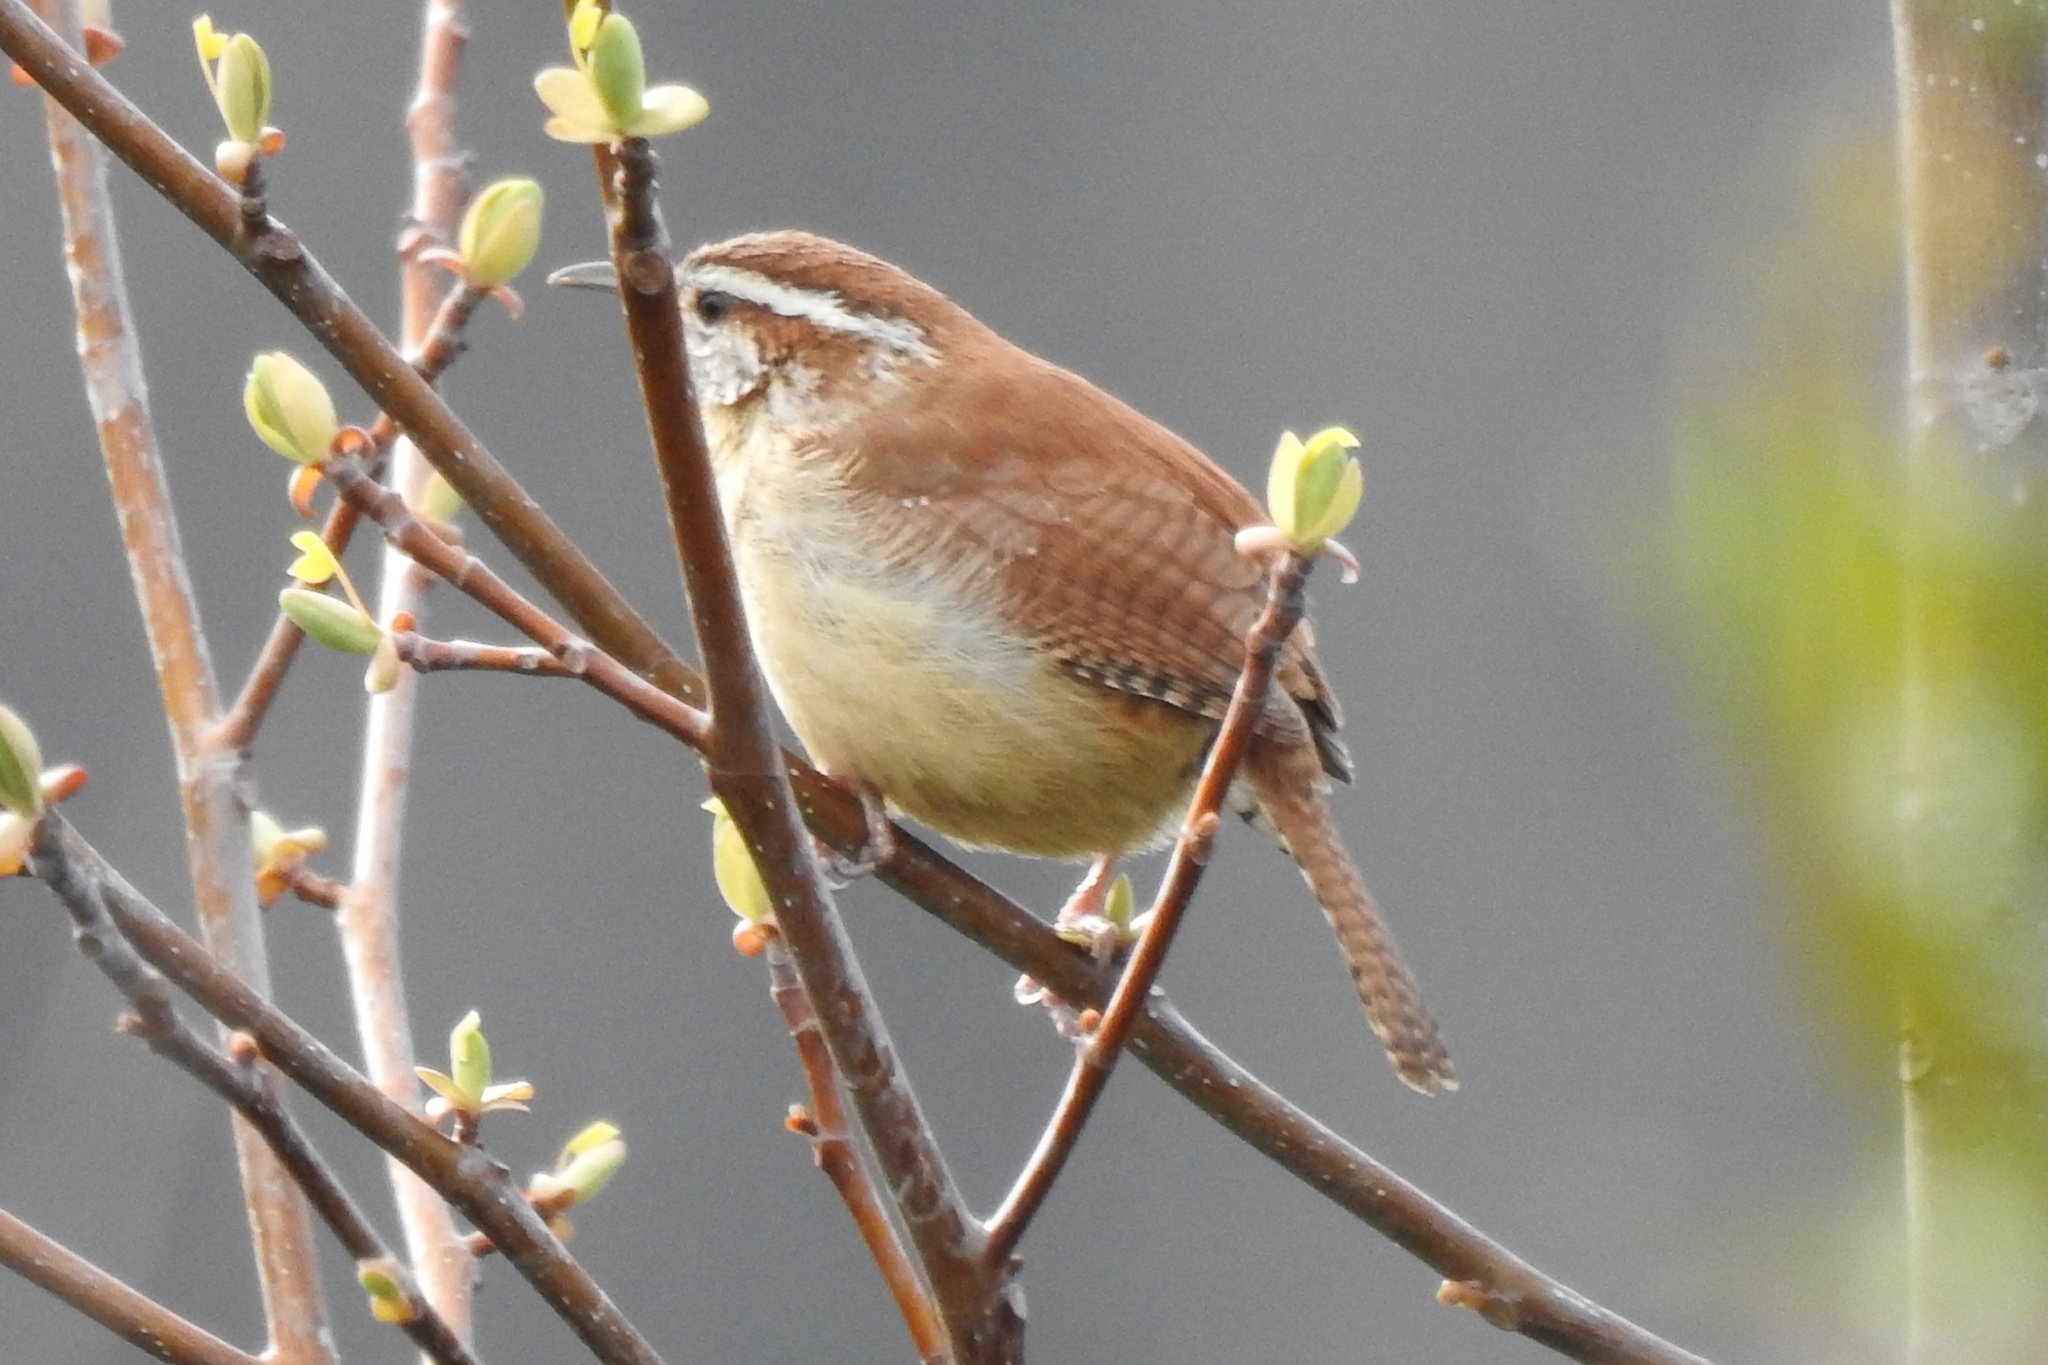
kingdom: Animalia
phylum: Chordata
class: Aves
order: Passeriformes
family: Troglodytidae
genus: Thryothorus
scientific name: Thryothorus ludovicianus
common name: Carolina wren
